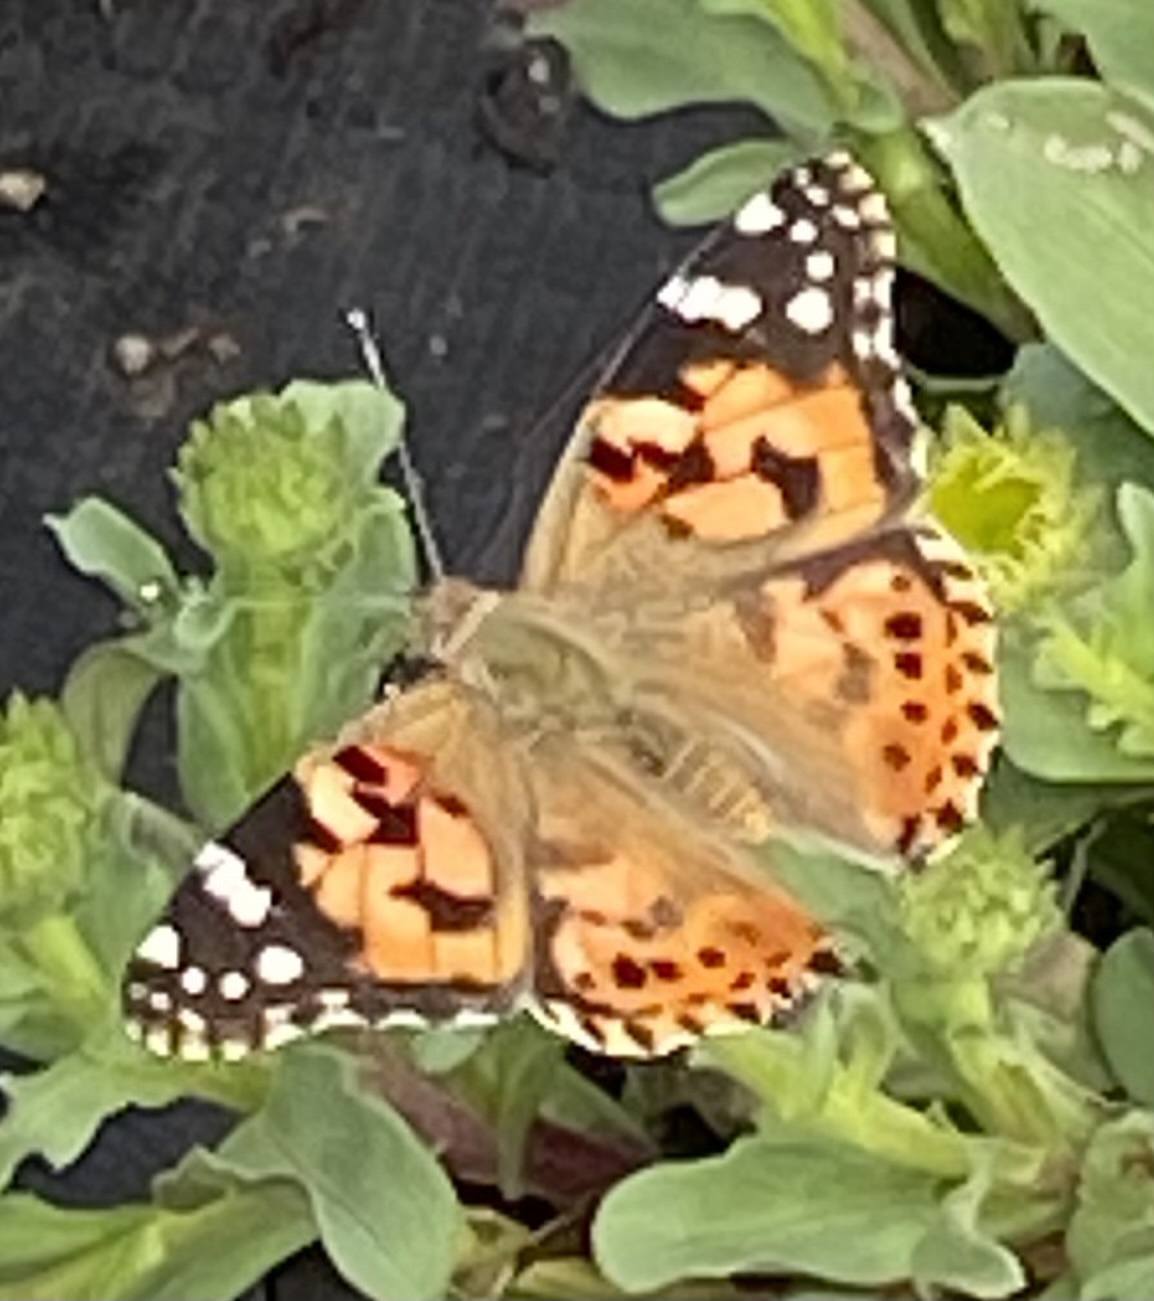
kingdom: Animalia
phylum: Arthropoda
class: Insecta
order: Lepidoptera
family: Nymphalidae
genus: Vanessa
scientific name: Vanessa cardui
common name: Painted lady
